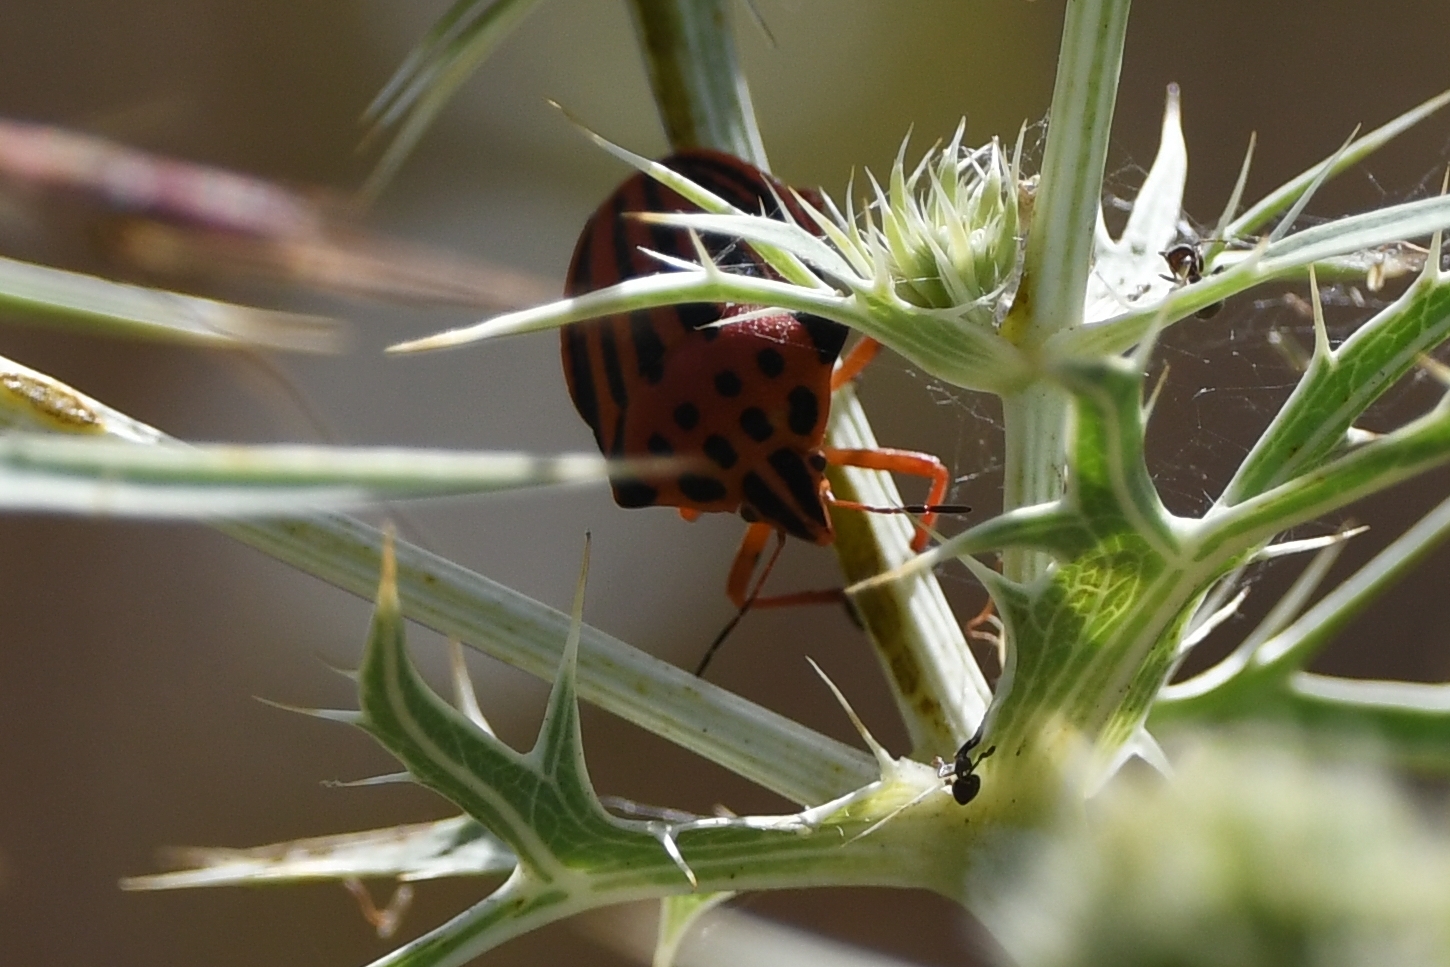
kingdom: Animalia
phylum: Arthropoda
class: Insecta
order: Hemiptera
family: Pentatomidae
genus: Graphosoma
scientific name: Graphosoma semipunctatum
